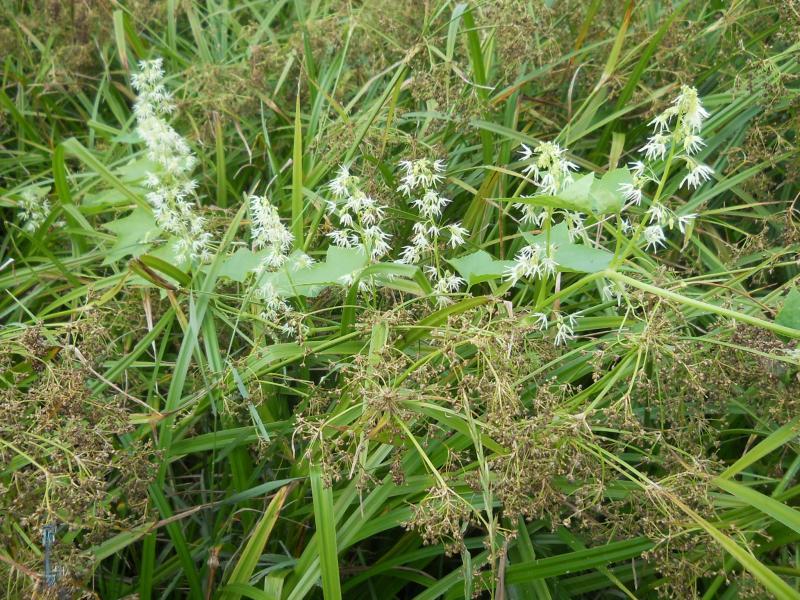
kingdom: Plantae
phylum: Tracheophyta
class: Magnoliopsida
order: Cucurbitales
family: Cucurbitaceae
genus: Echinocystis
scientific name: Echinocystis lobata
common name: Wild cucumber
